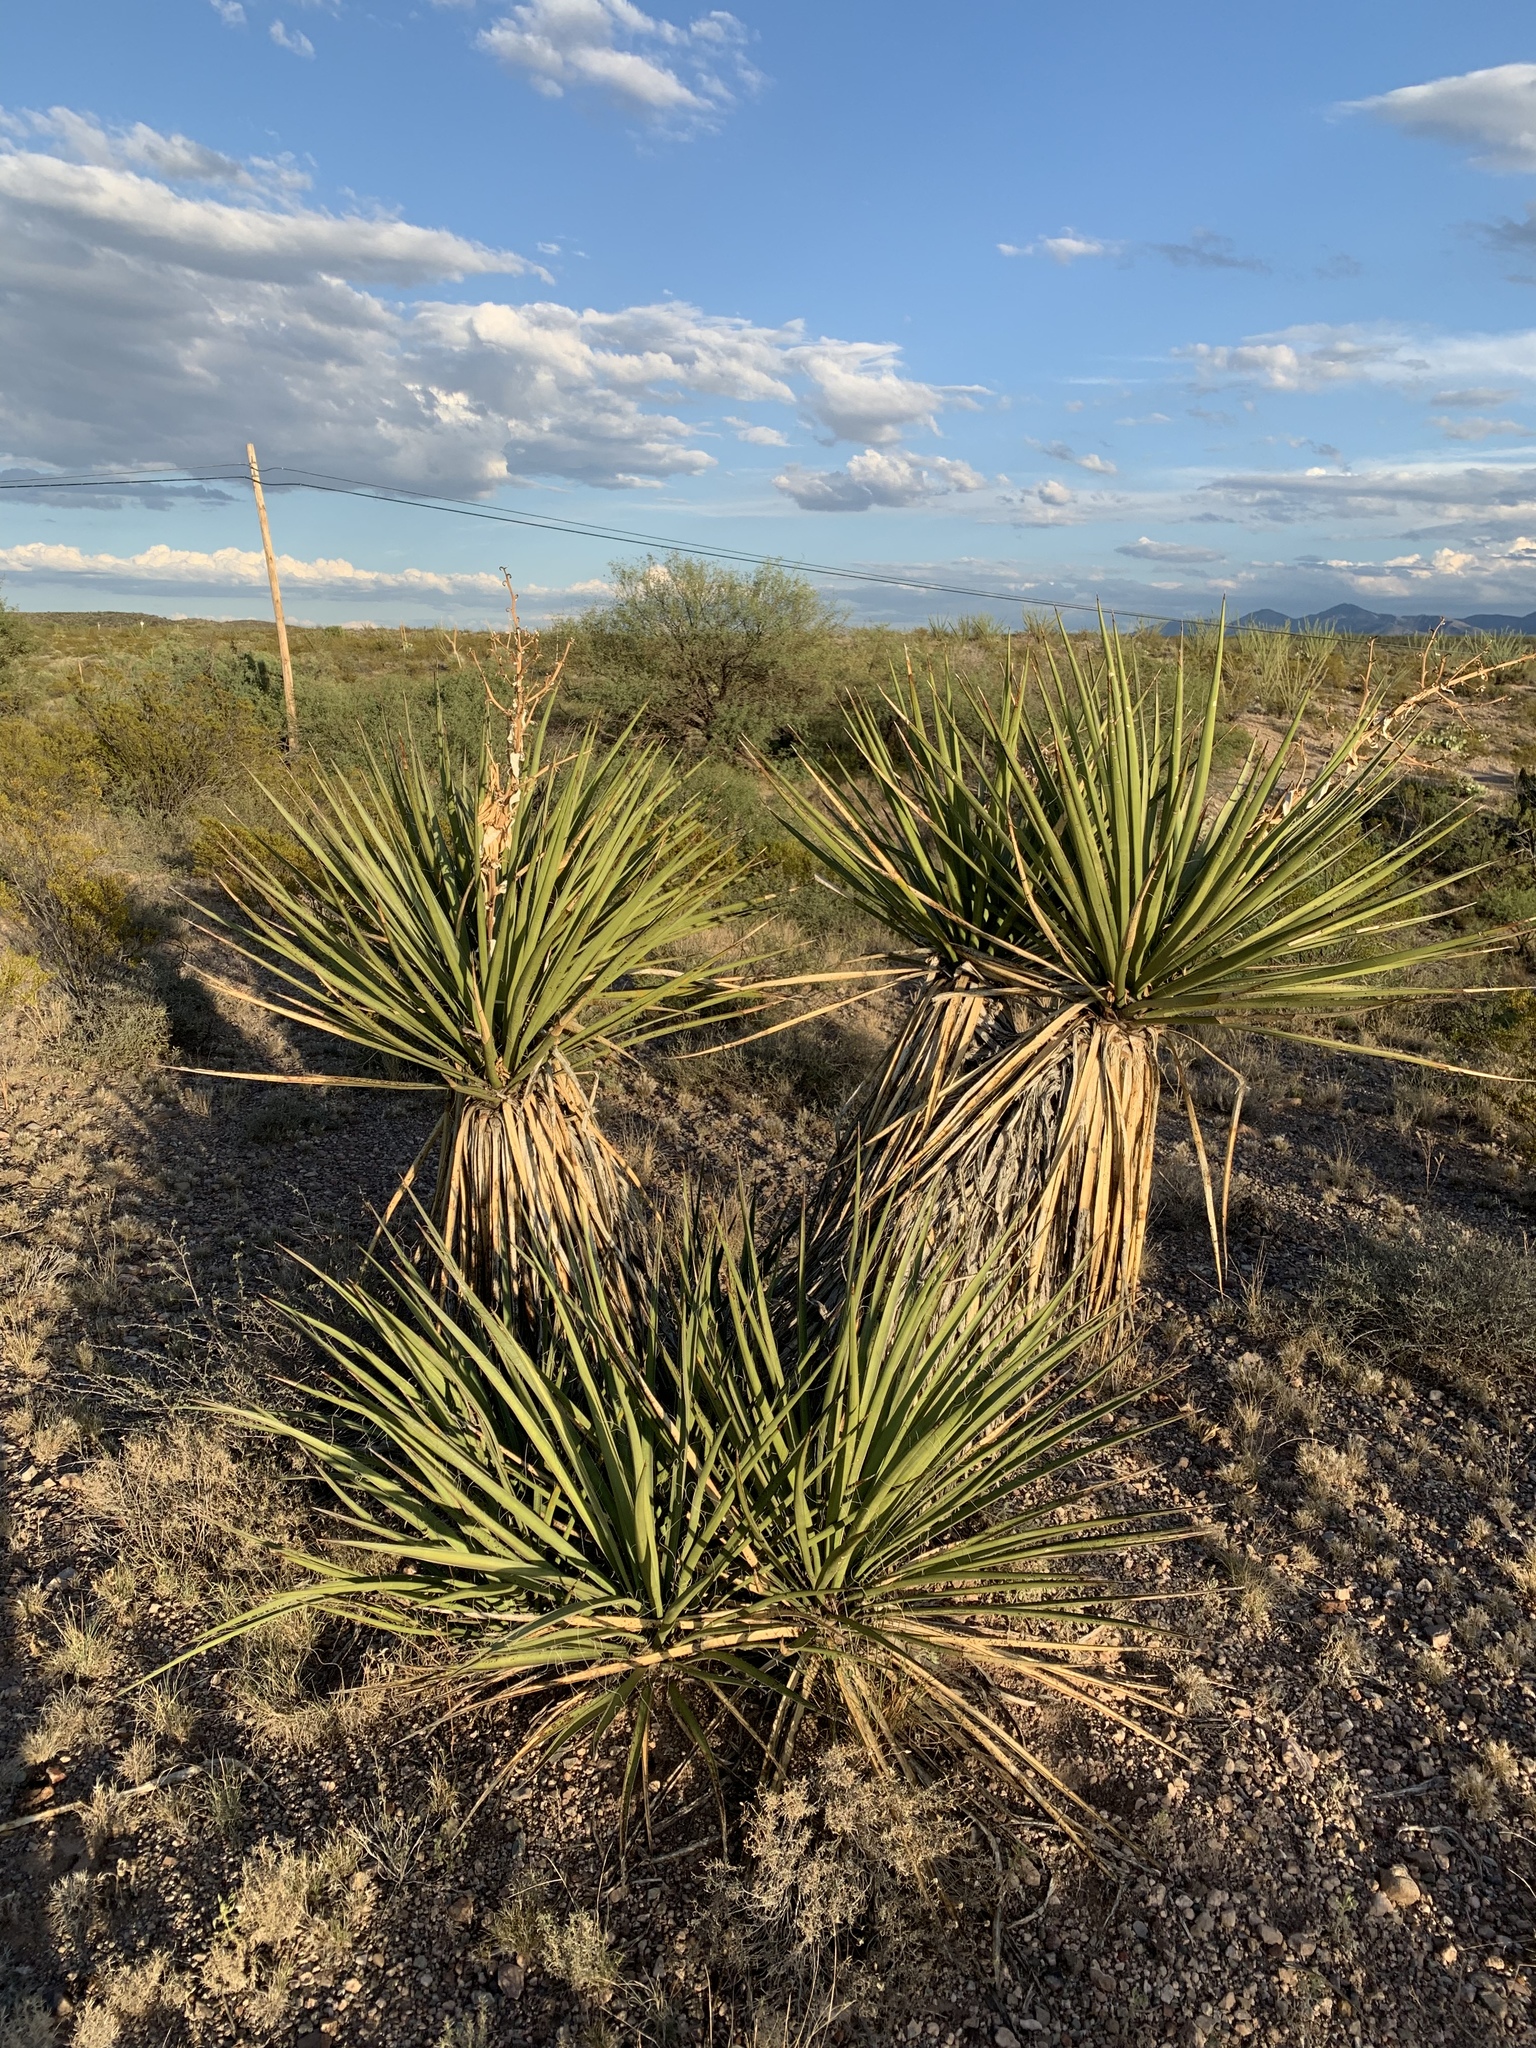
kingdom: Plantae
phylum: Tracheophyta
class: Liliopsida
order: Asparagales
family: Asparagaceae
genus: Yucca
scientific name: Yucca baccata
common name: Banana yucca
